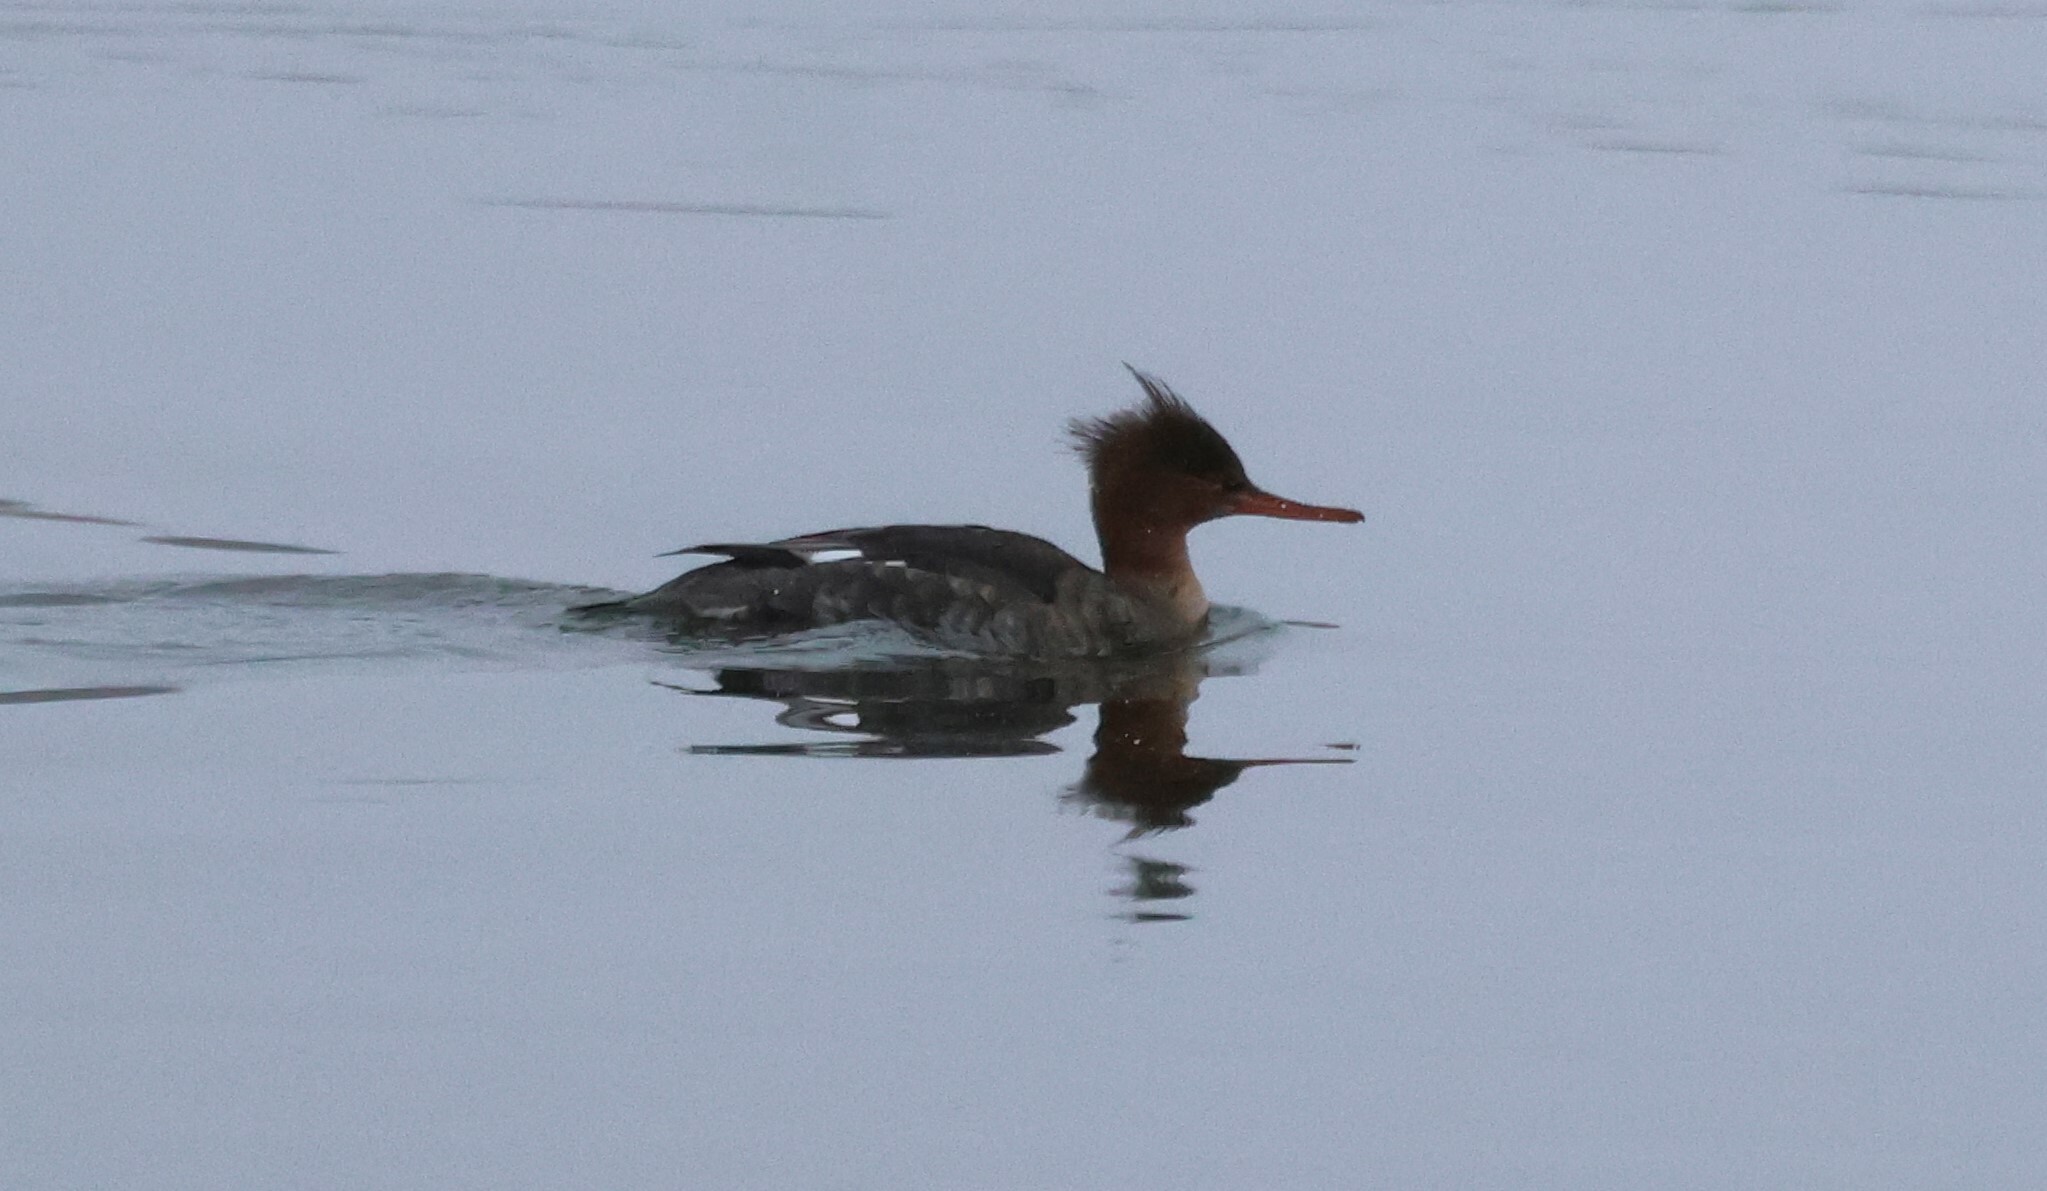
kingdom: Animalia
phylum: Chordata
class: Aves
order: Anseriformes
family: Anatidae
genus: Mergus
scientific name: Mergus serrator
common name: Red-breasted merganser
